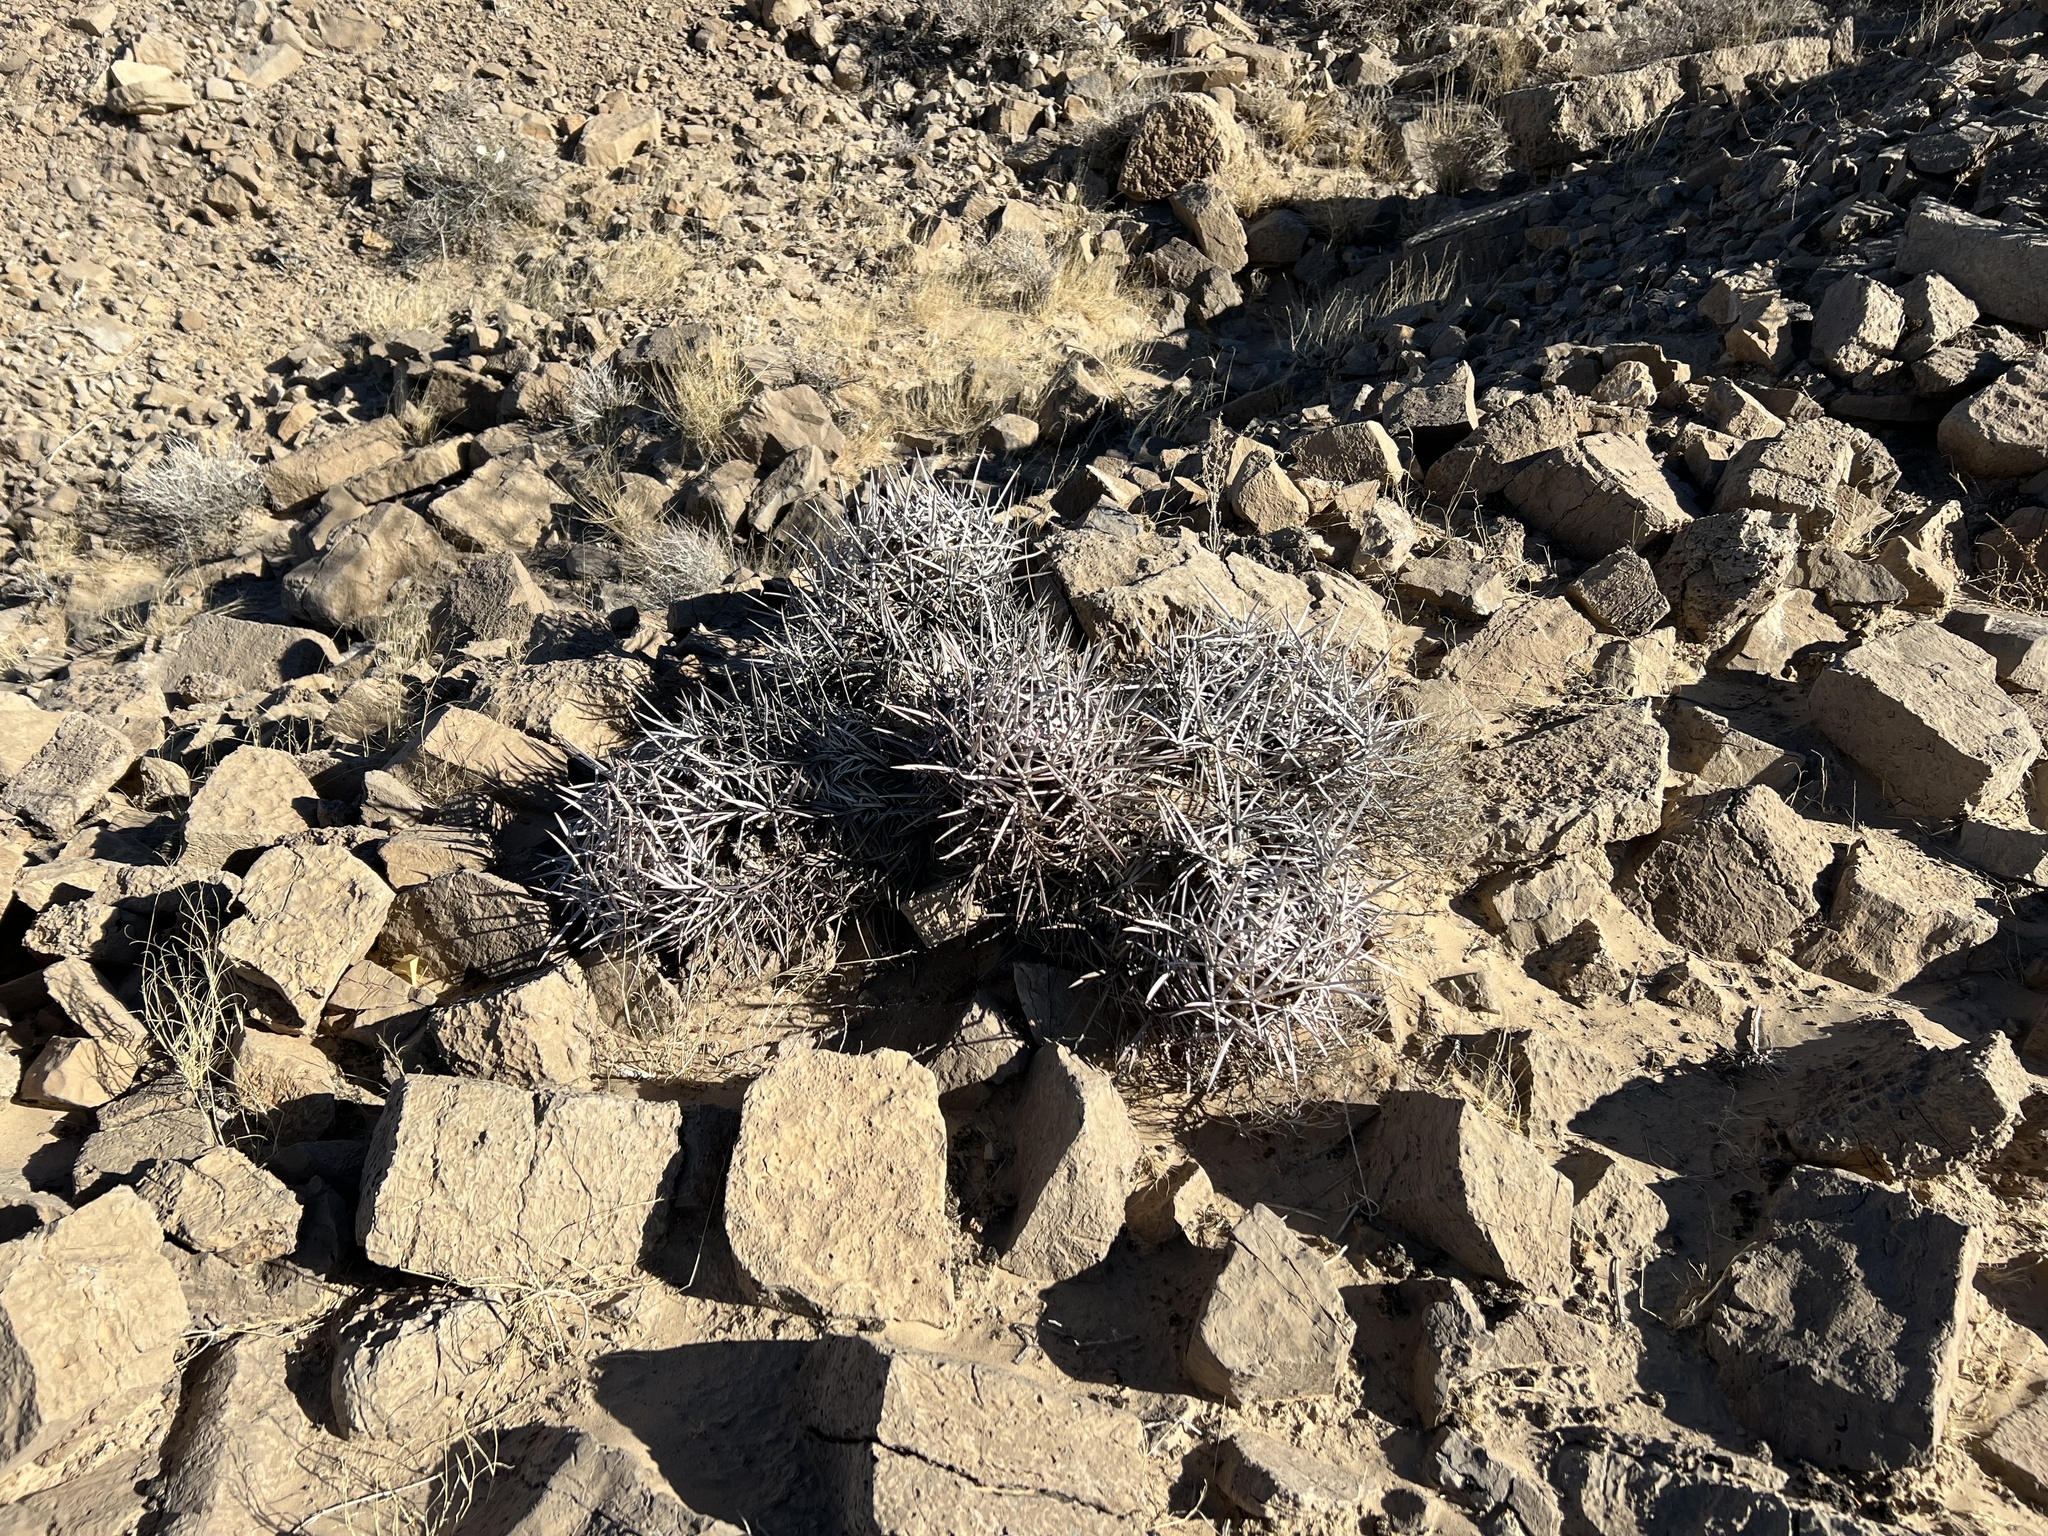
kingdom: Plantae
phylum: Tracheophyta
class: Magnoliopsida
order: Caryophyllales
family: Cactaceae
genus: Echinocactus
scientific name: Echinocactus polycephalus
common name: Cottontop cactus
